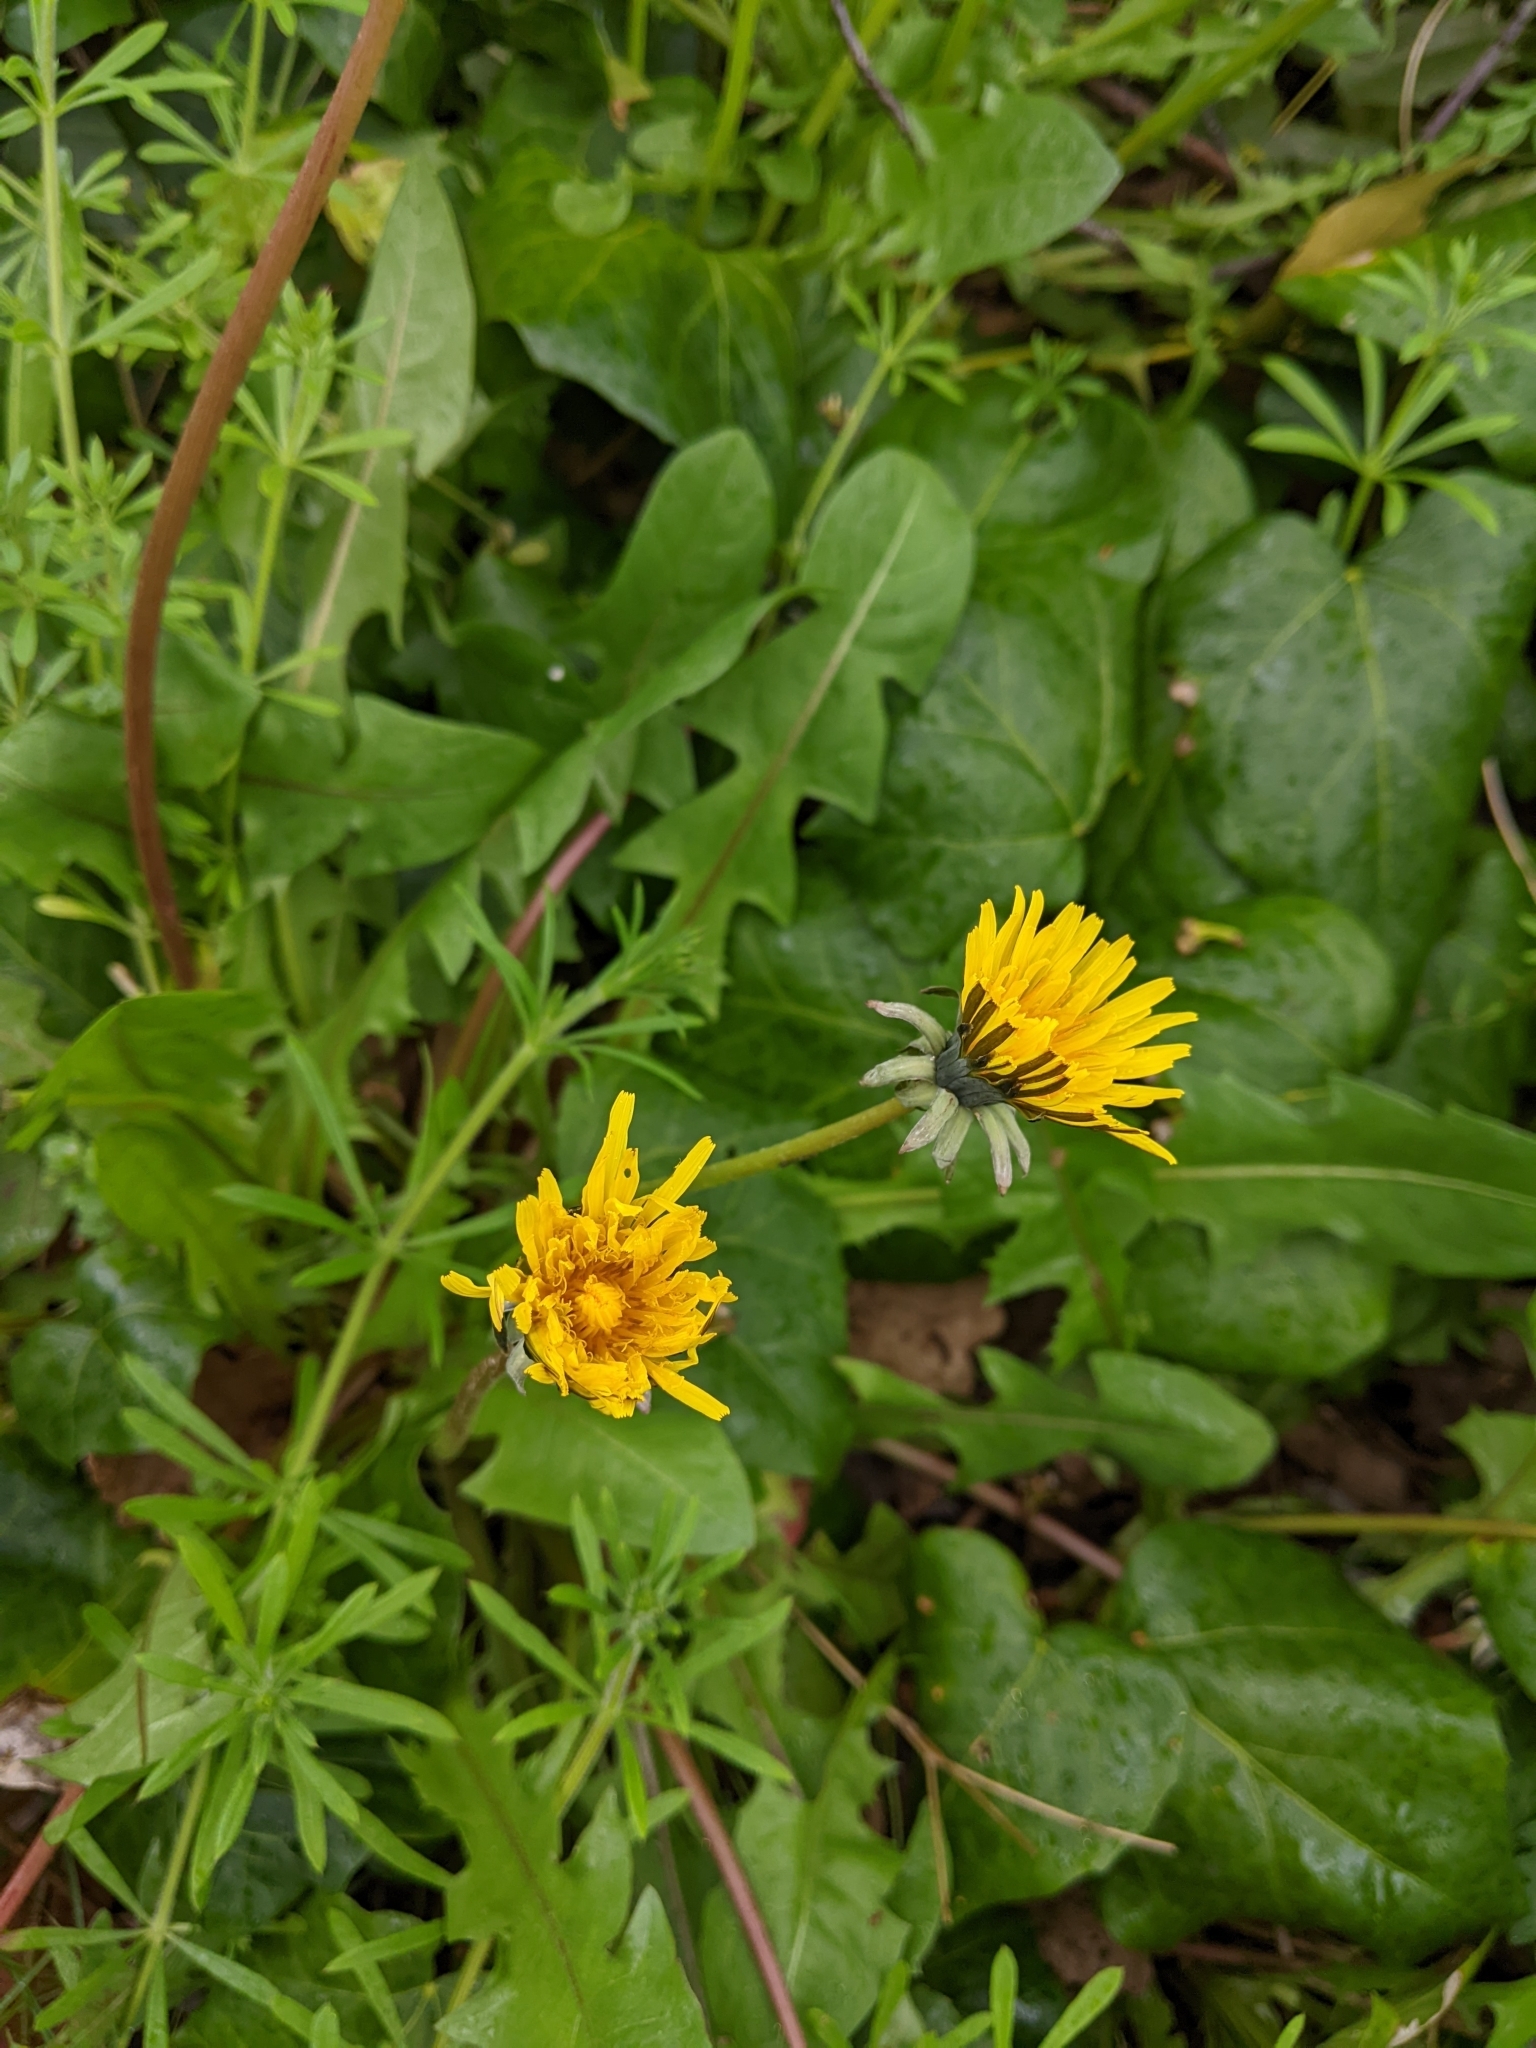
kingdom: Plantae
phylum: Tracheophyta
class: Magnoliopsida
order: Asterales
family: Asteraceae
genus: Taraxacum
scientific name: Taraxacum officinale
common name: Common dandelion
